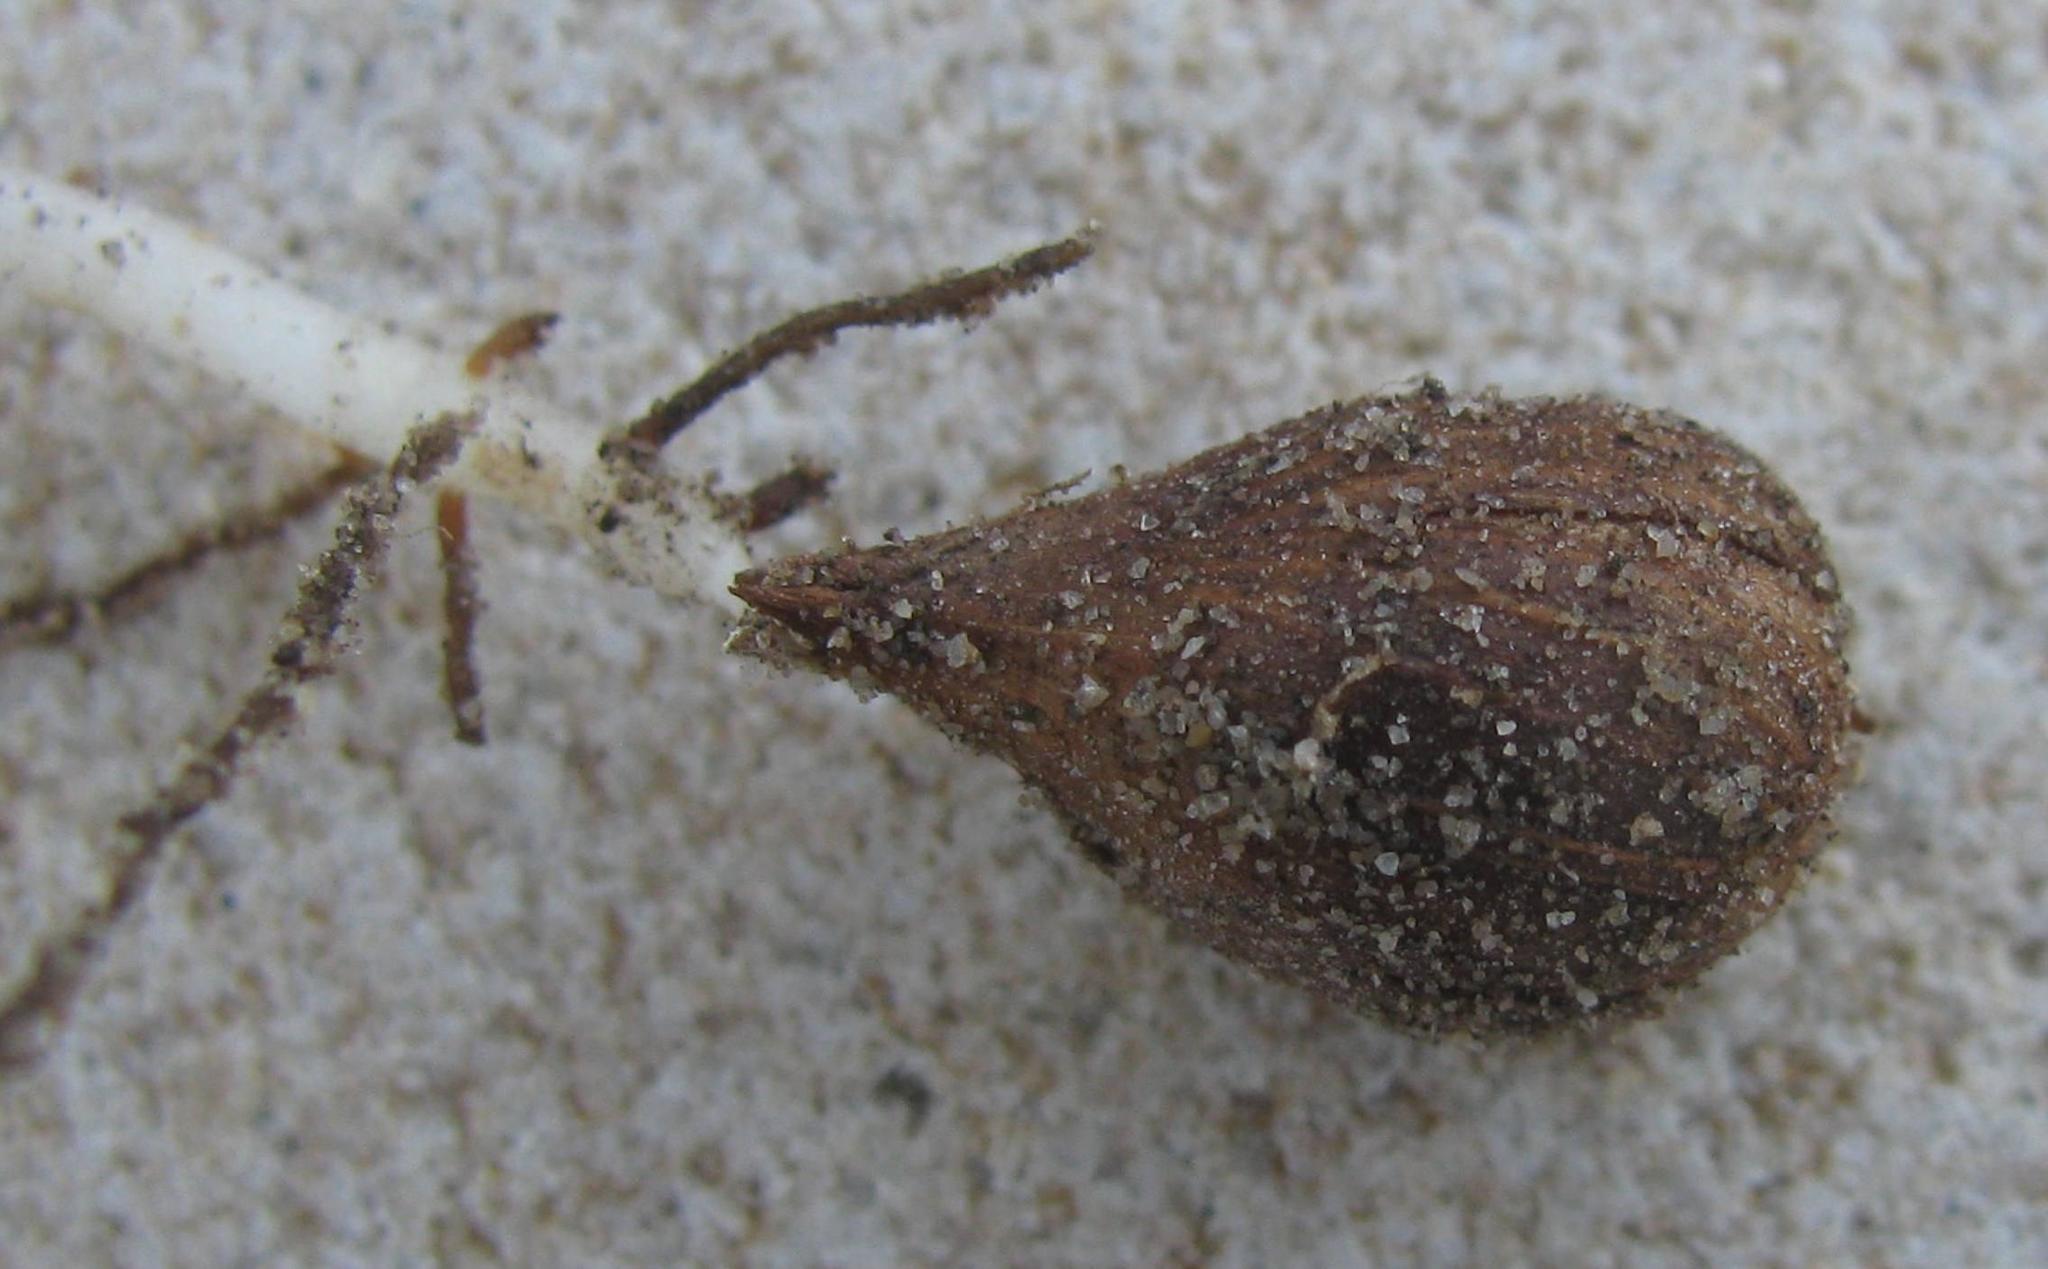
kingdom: Plantae
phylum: Tracheophyta
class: Magnoliopsida
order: Oxalidales
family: Oxalidaceae
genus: Oxalis
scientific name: Oxalis pes-caprae
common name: Bermuda-buttercup
